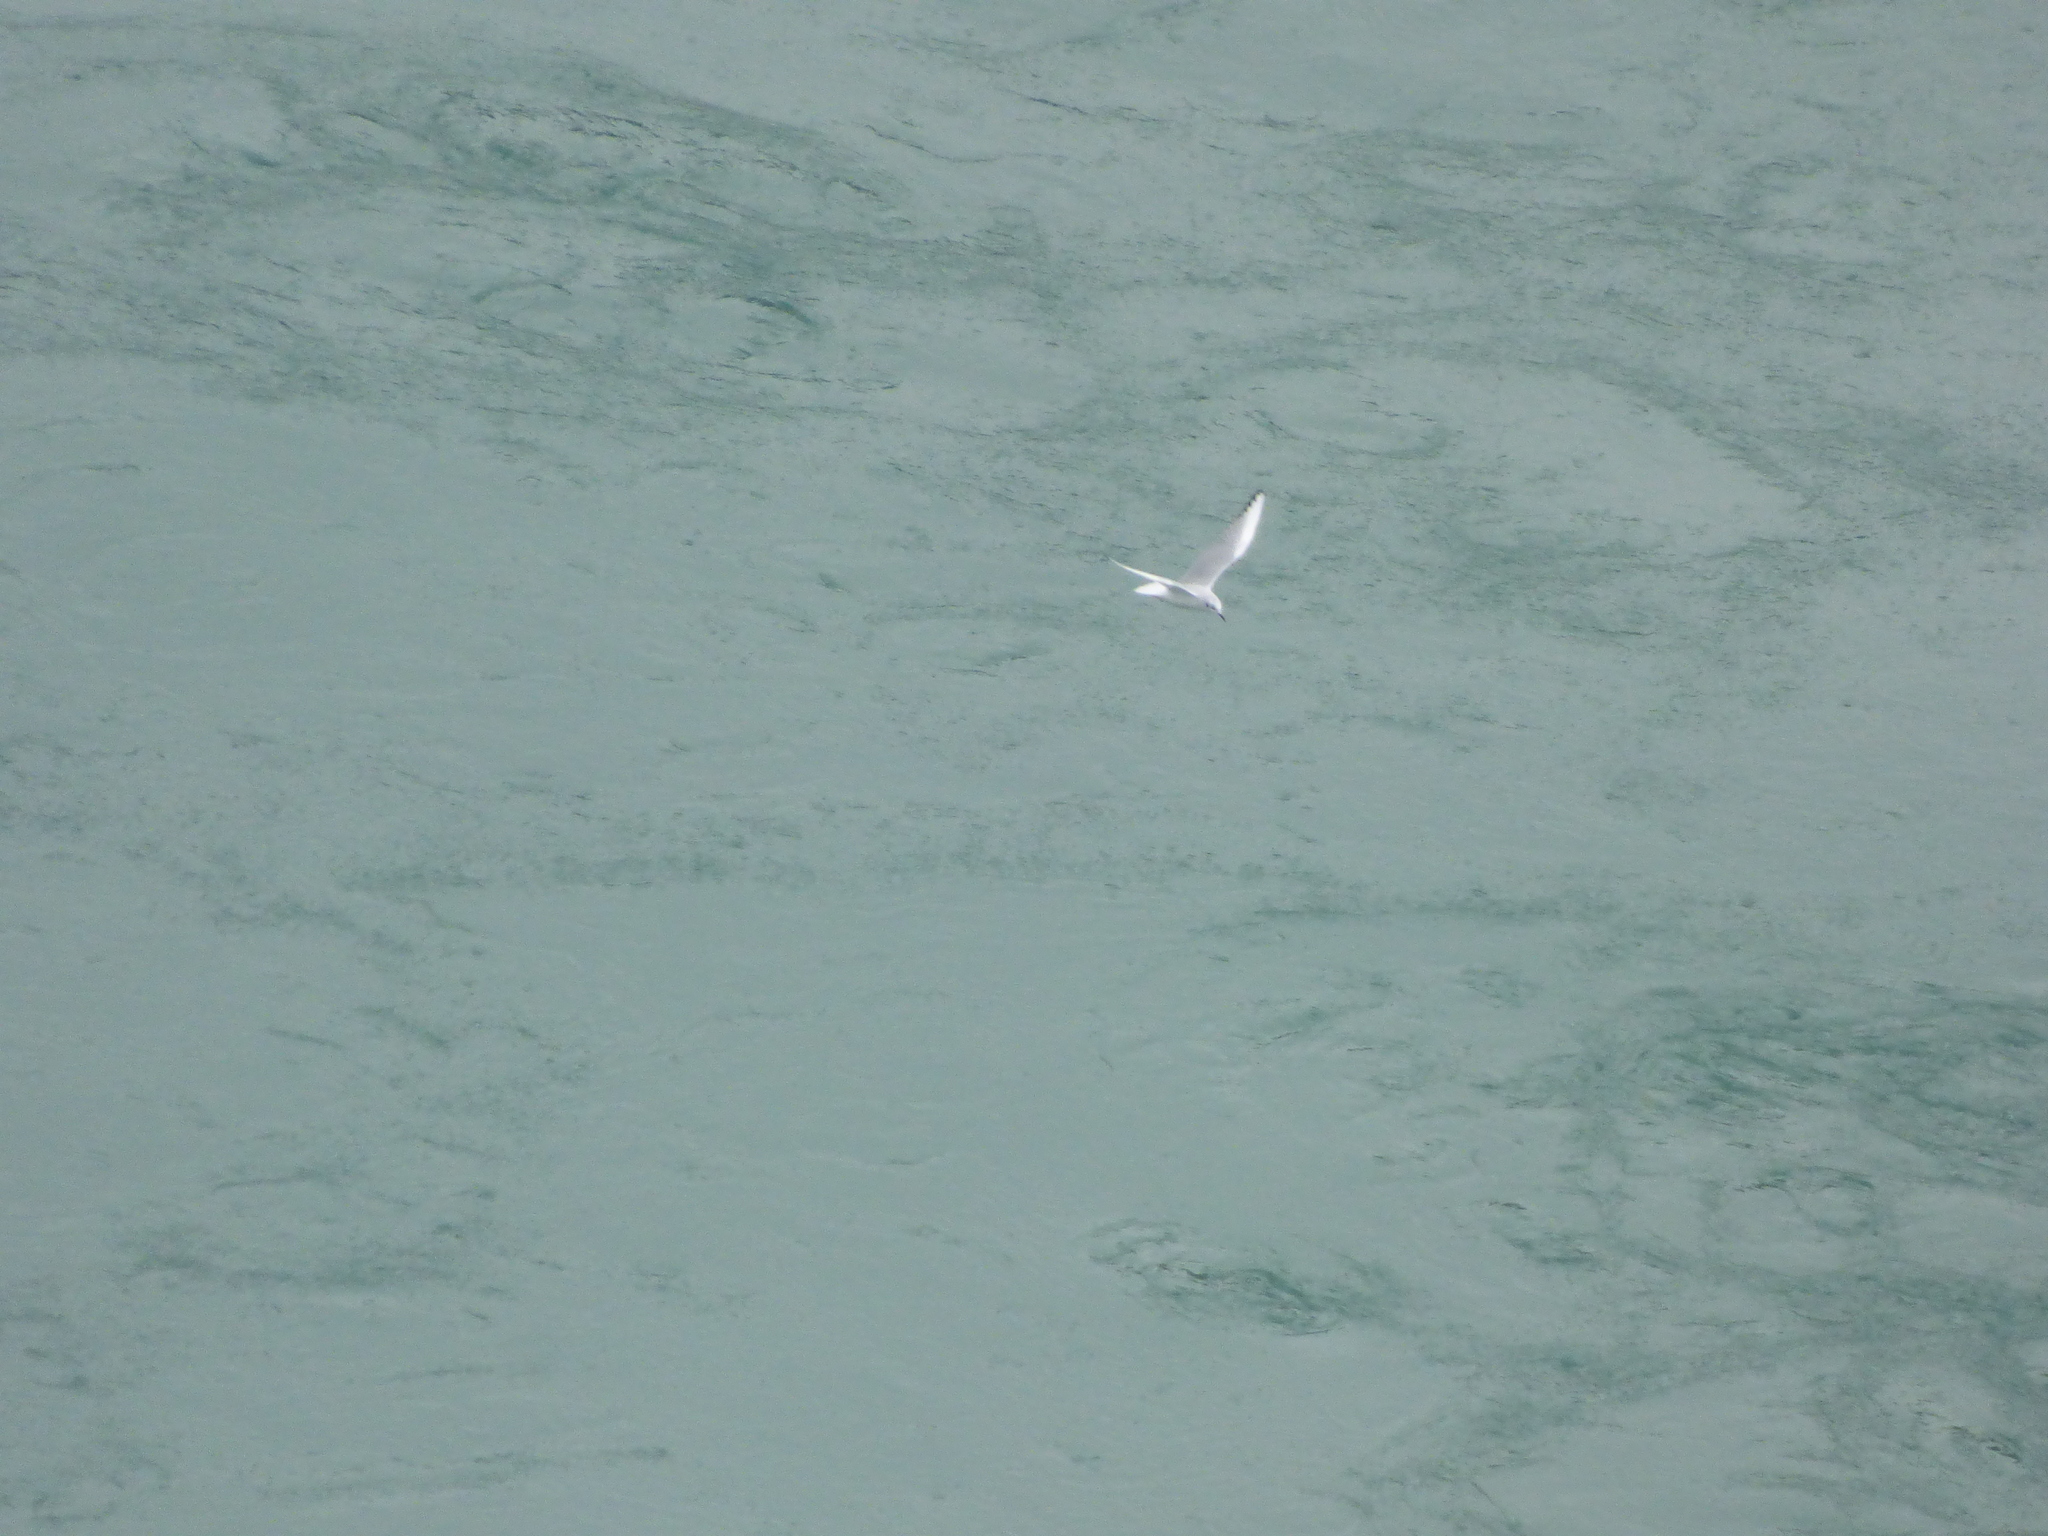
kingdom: Animalia
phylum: Chordata
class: Aves
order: Charadriiformes
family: Laridae
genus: Chroicocephalus
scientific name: Chroicocephalus philadelphia
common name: Bonaparte's gull
